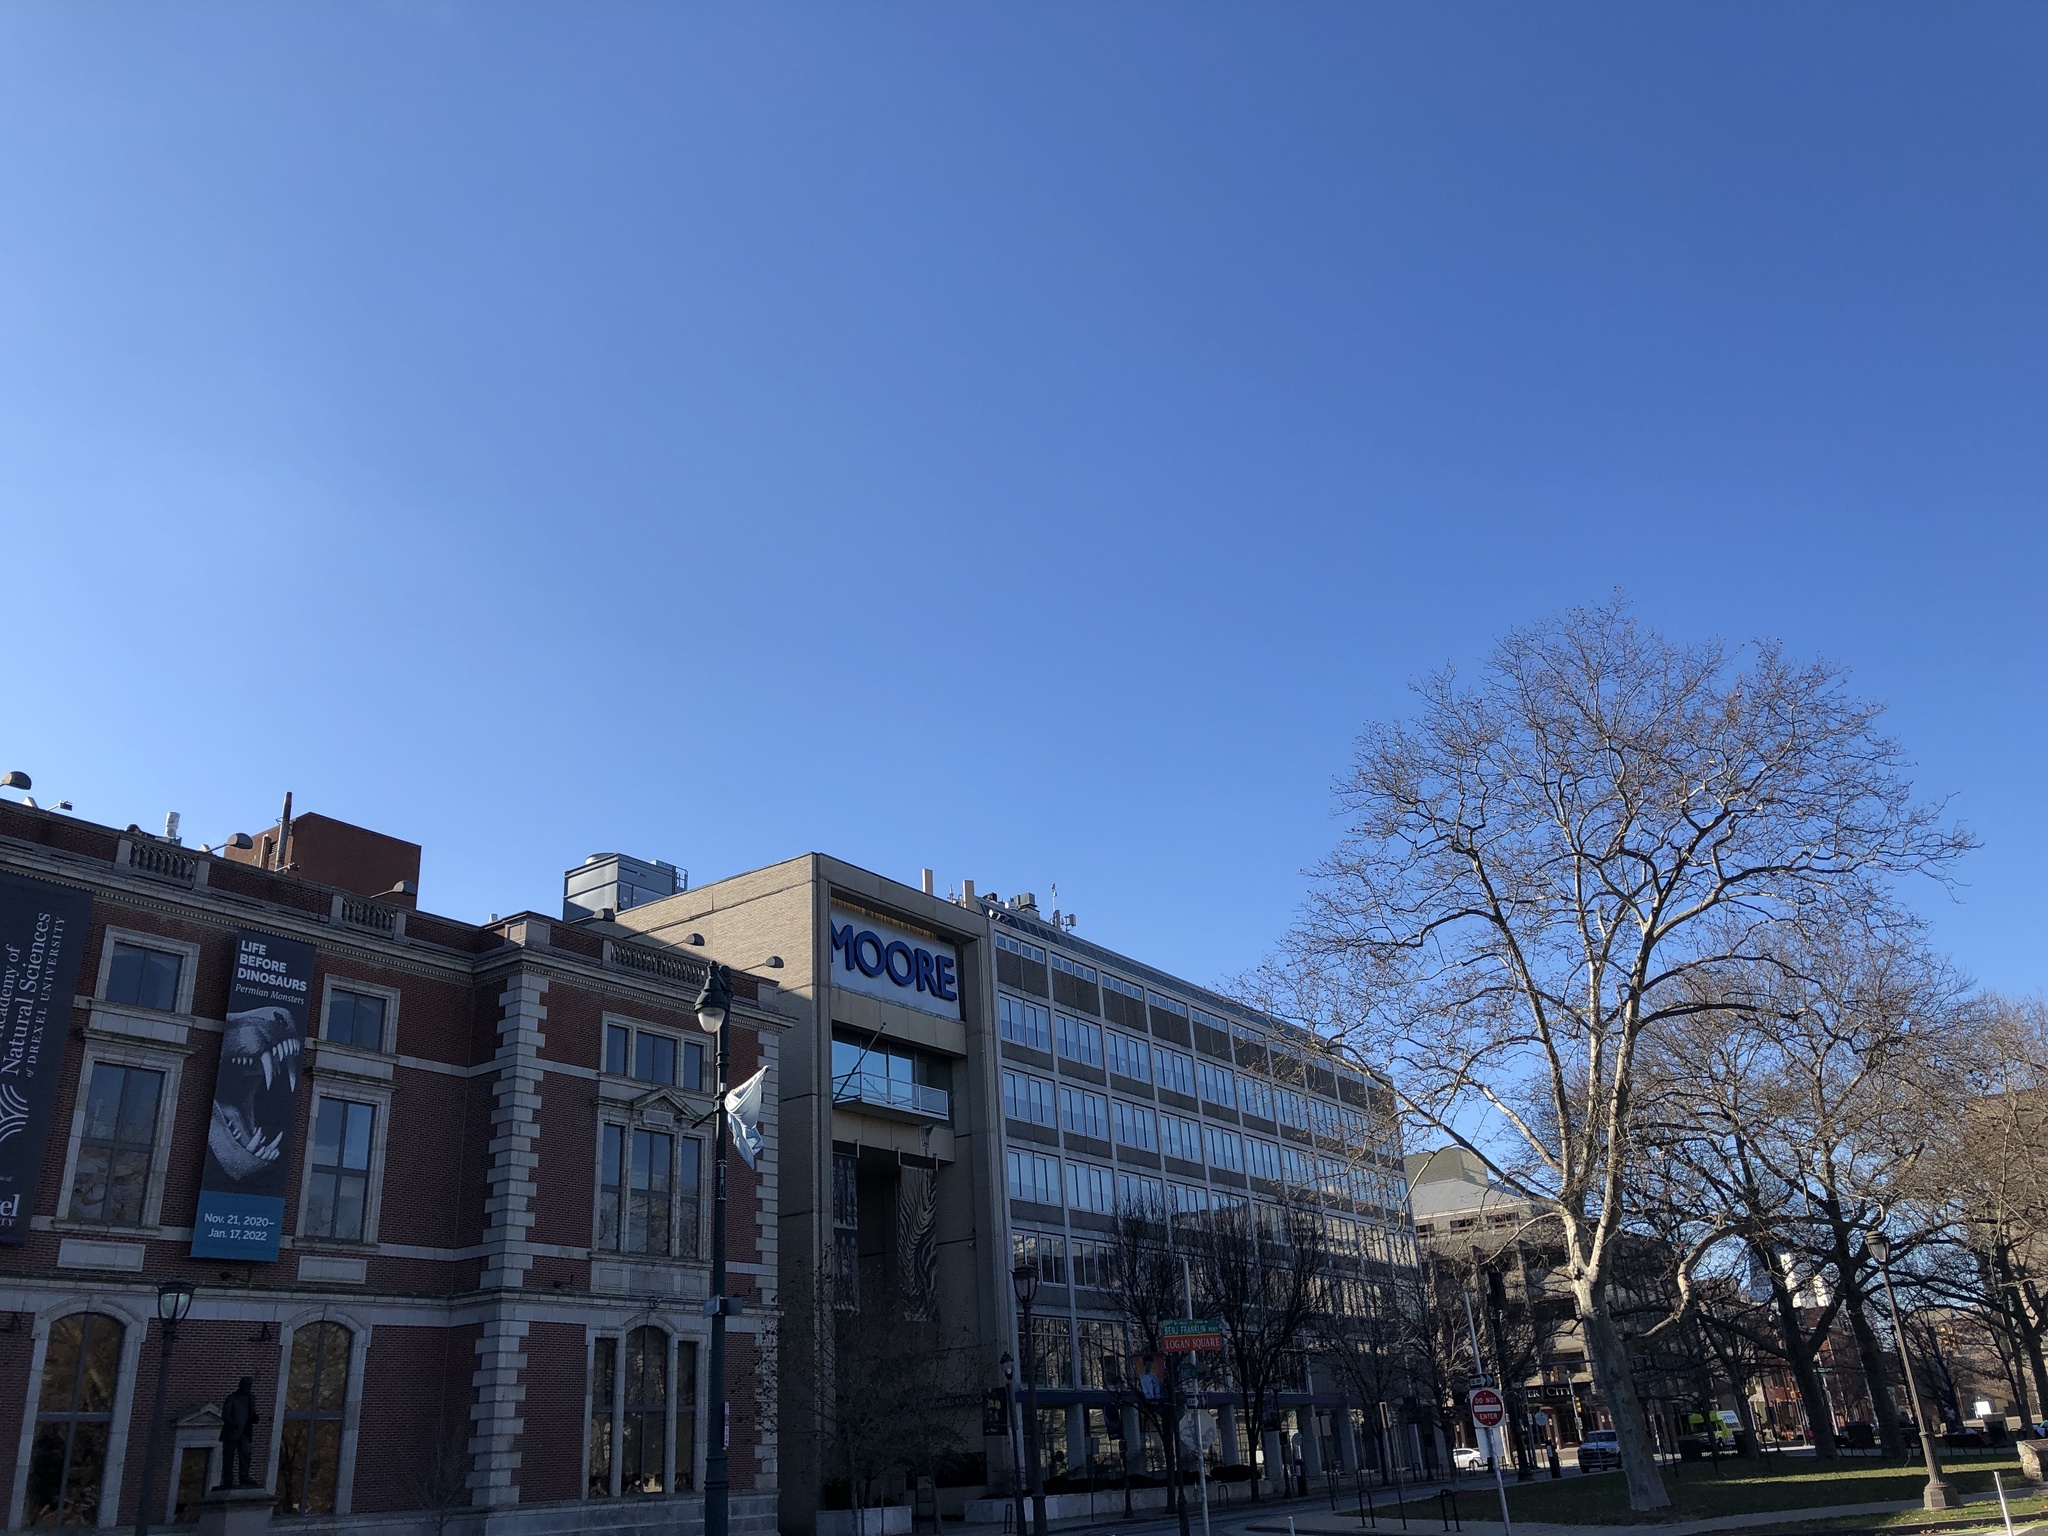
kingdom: Animalia
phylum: Chordata
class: Aves
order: Accipitriformes
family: Accipitridae
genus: Buteo
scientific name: Buteo jamaicensis
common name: Red-tailed hawk
